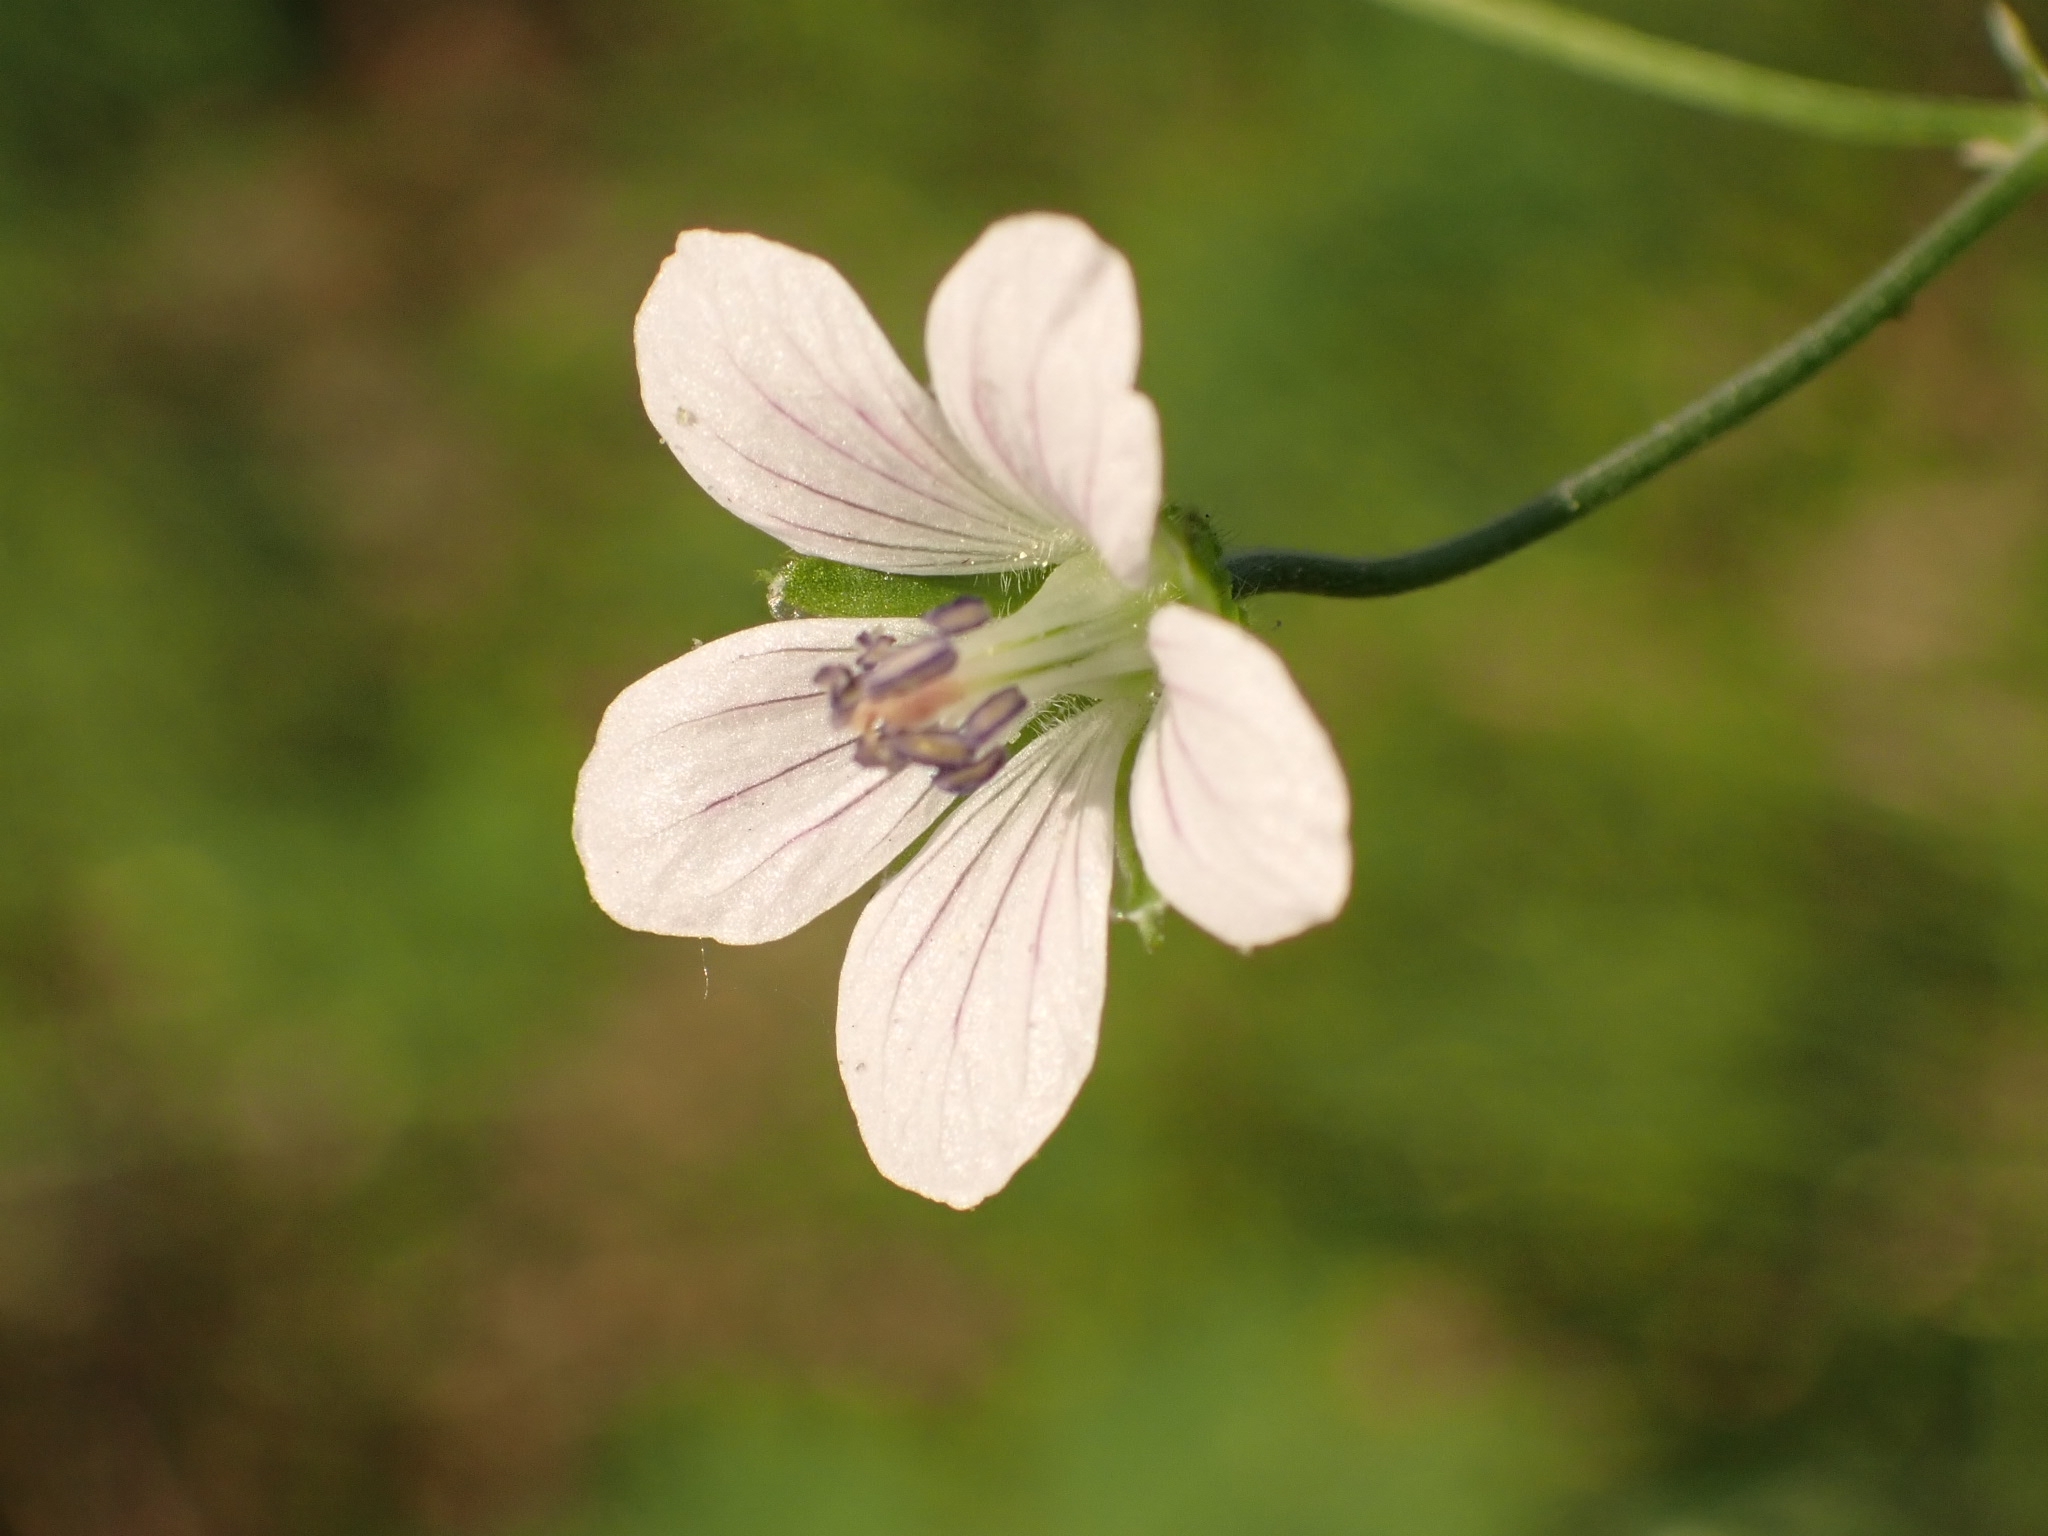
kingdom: Plantae
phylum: Tracheophyta
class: Magnoliopsida
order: Geraniales
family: Geraniaceae
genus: Geranium
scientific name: Geranium pseudosibiricum
